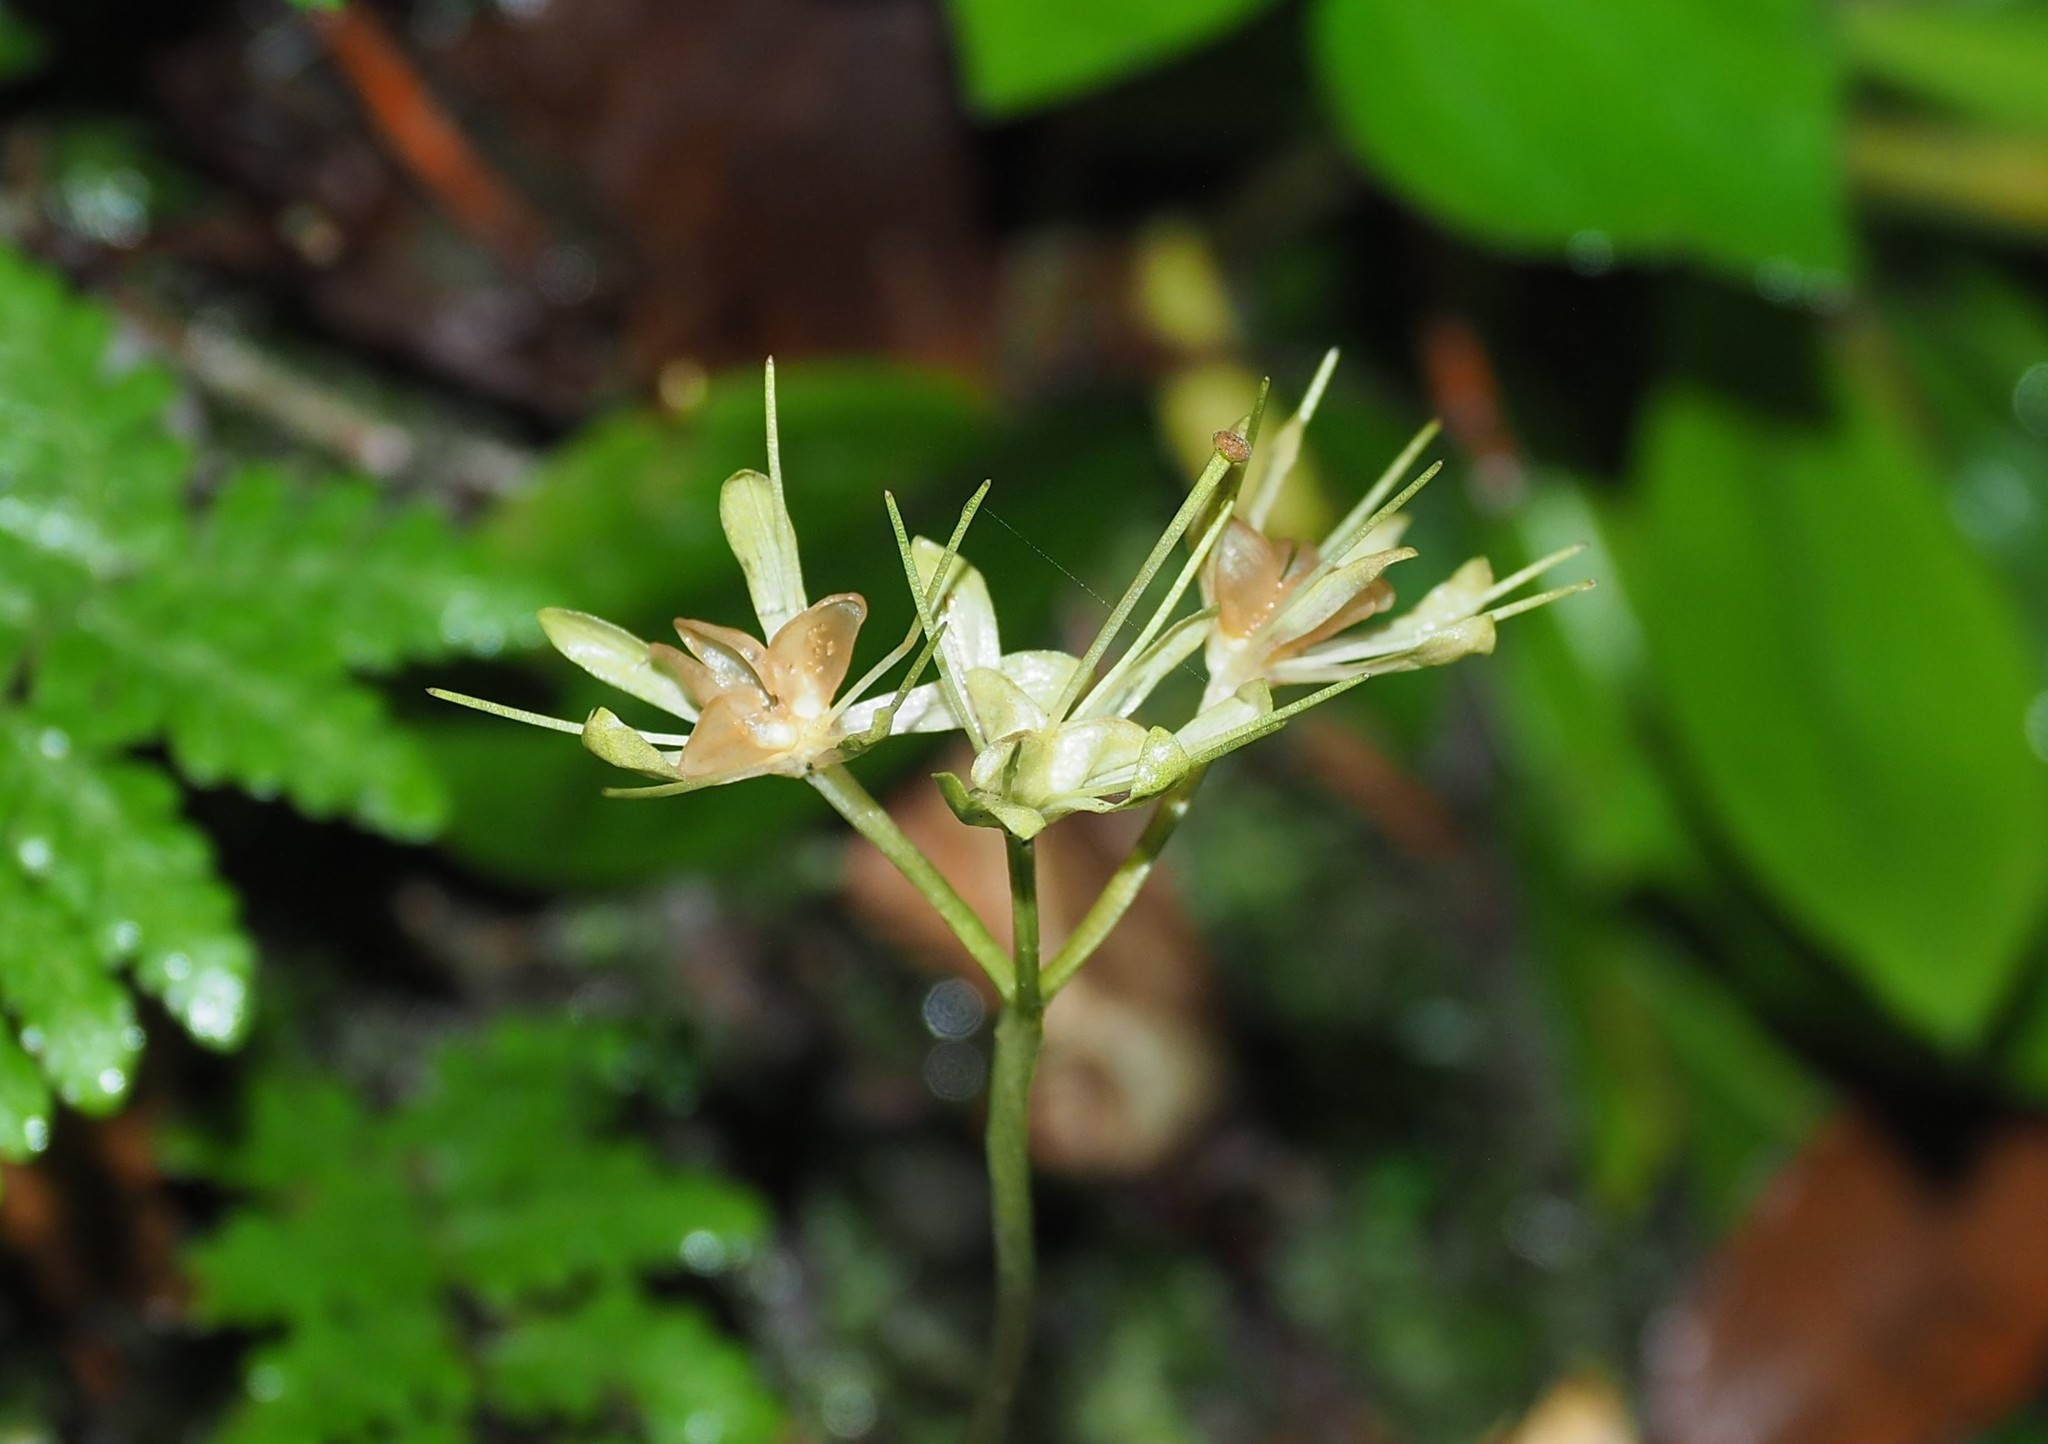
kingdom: Plantae
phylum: Tracheophyta
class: Liliopsida
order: Liliales
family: Melanthiaceae
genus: Helonias
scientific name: Helonias umbellata
